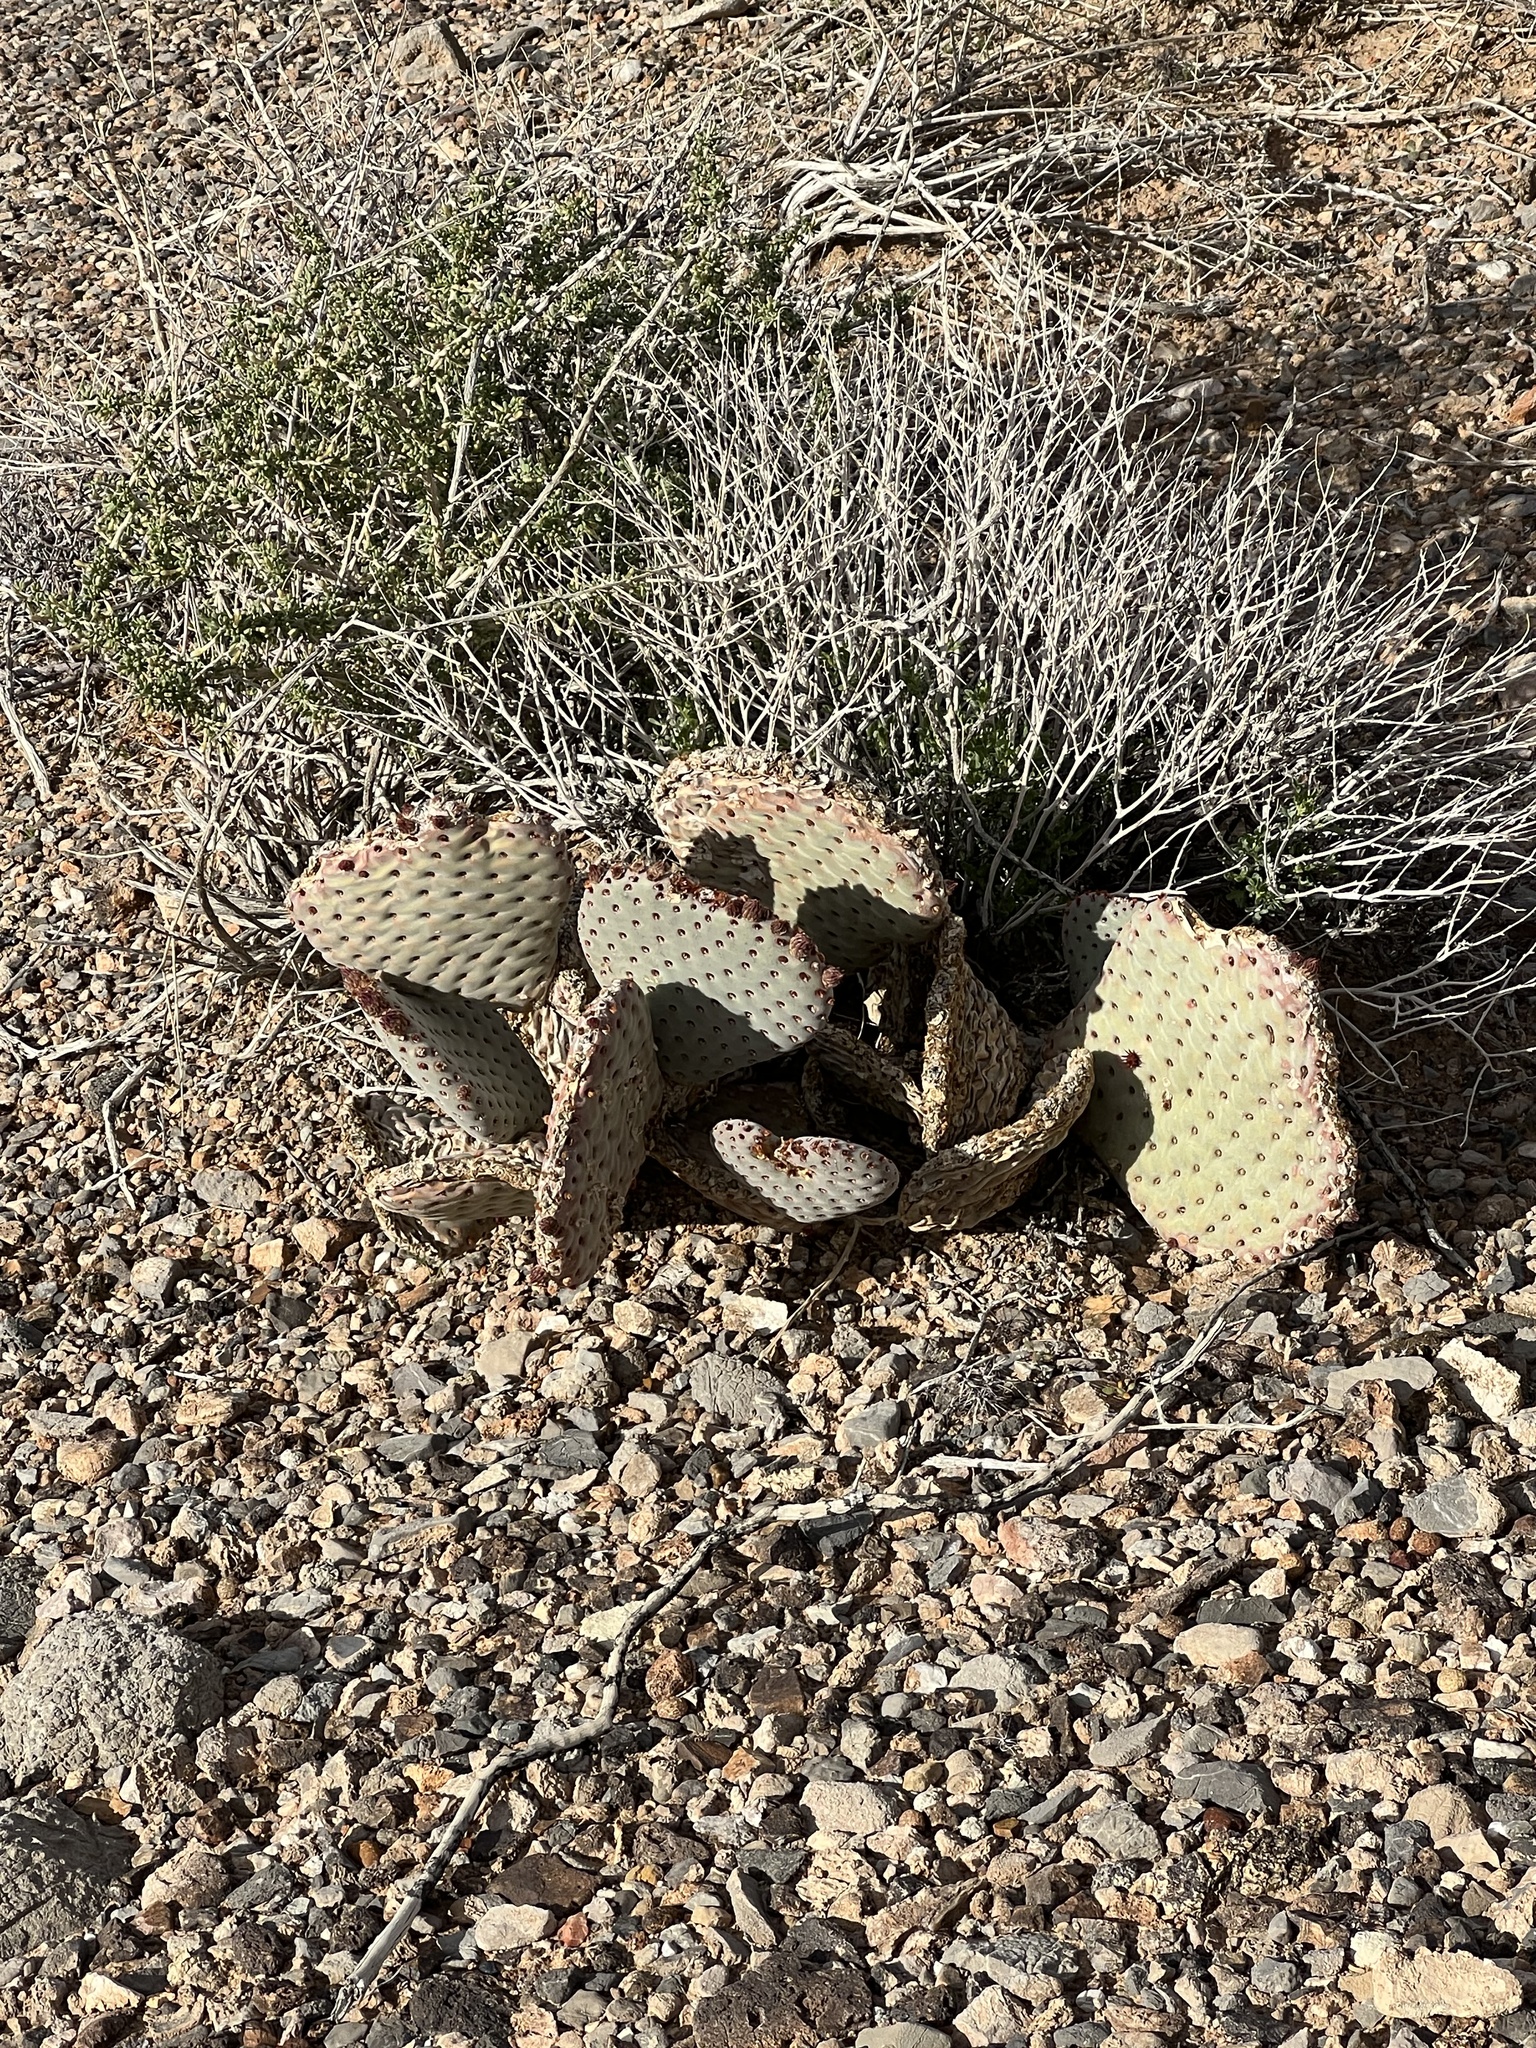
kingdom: Plantae
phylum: Tracheophyta
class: Magnoliopsida
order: Caryophyllales
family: Cactaceae
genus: Opuntia
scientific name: Opuntia basilaris
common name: Beavertail prickly-pear
